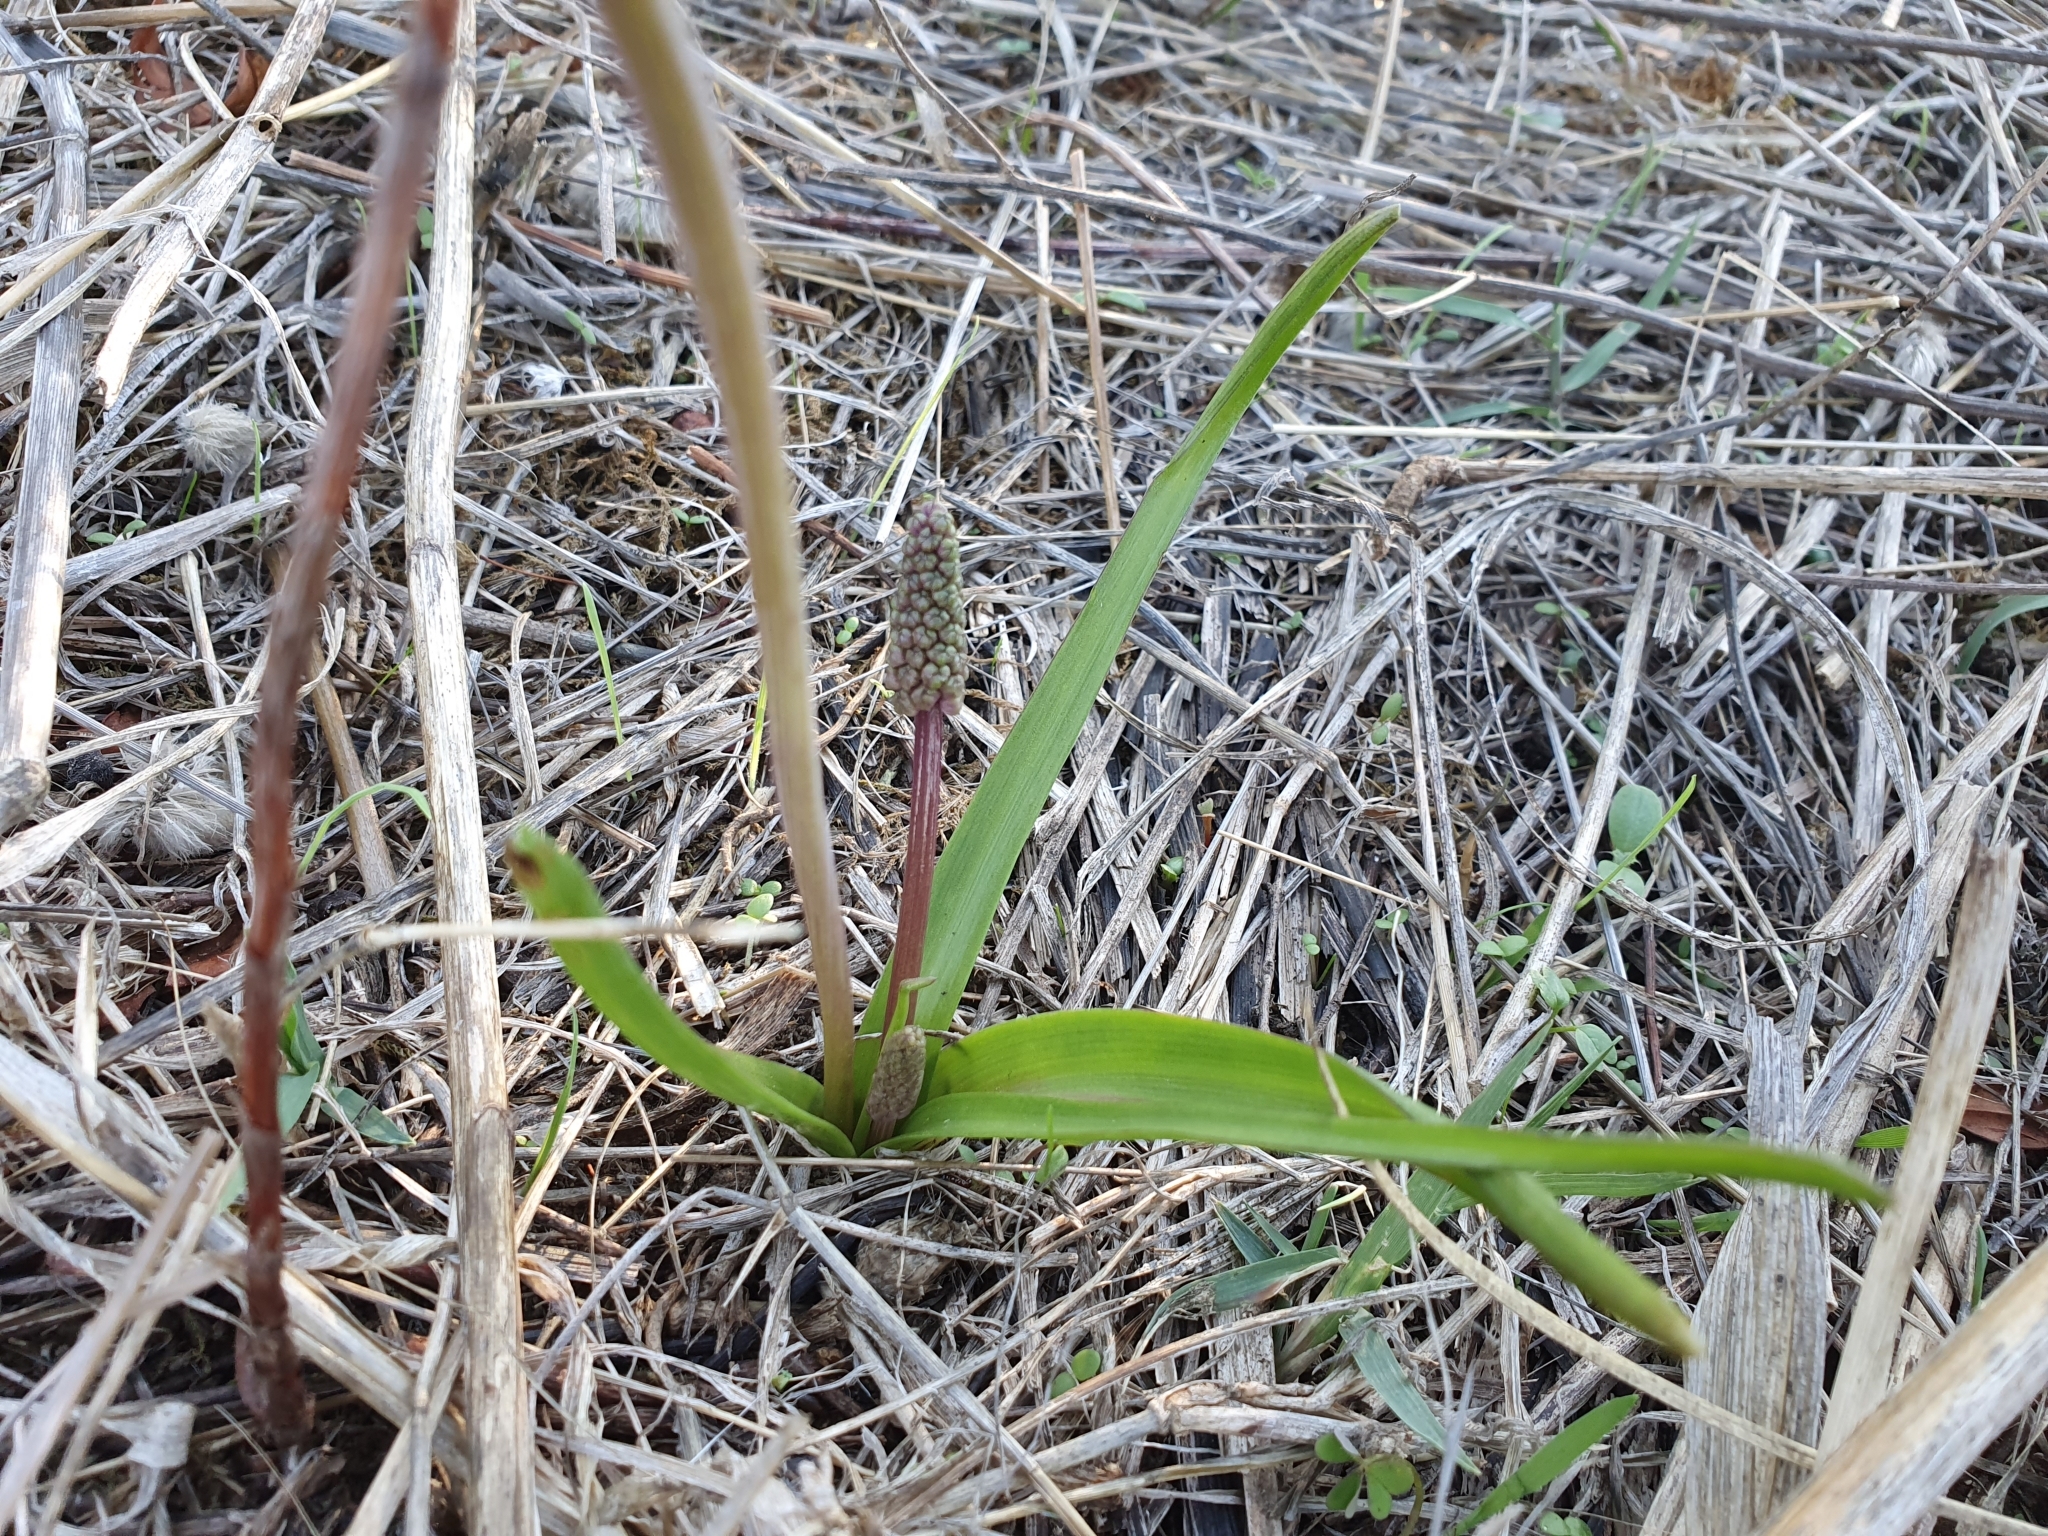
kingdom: Plantae
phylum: Tracheophyta
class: Liliopsida
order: Asparagales
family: Asparagaceae
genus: Barnardia
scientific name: Barnardia numidica
